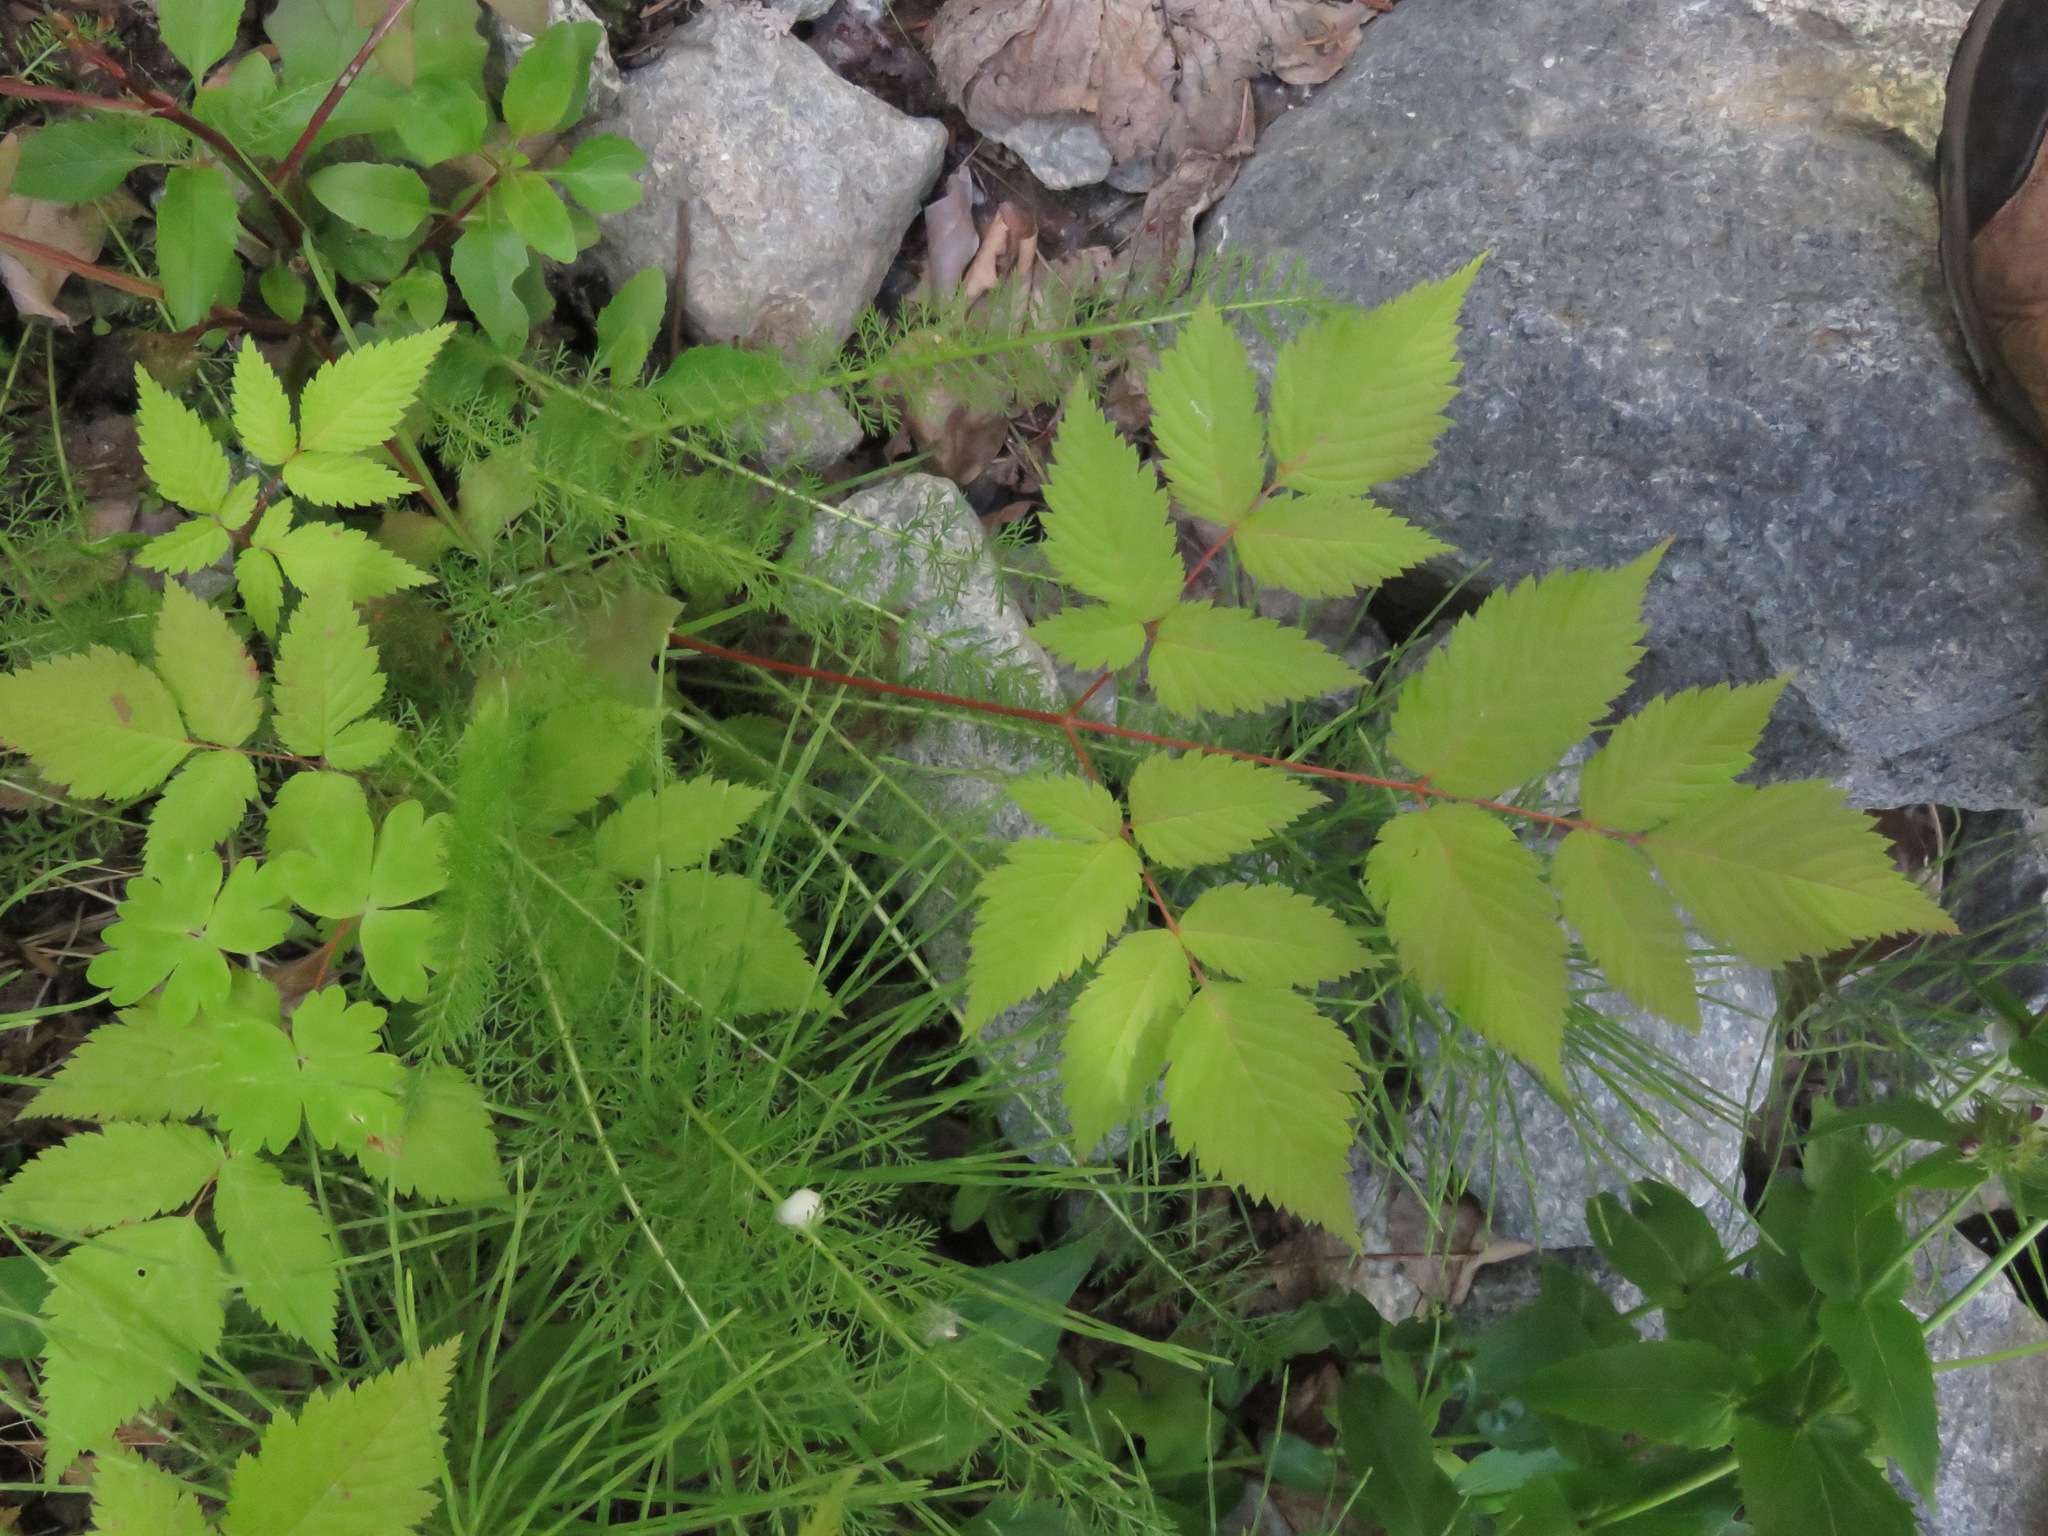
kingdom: Plantae
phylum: Tracheophyta
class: Magnoliopsida
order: Rosales
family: Rosaceae
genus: Aruncus
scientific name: Aruncus dioicus
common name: Buck's-beard
